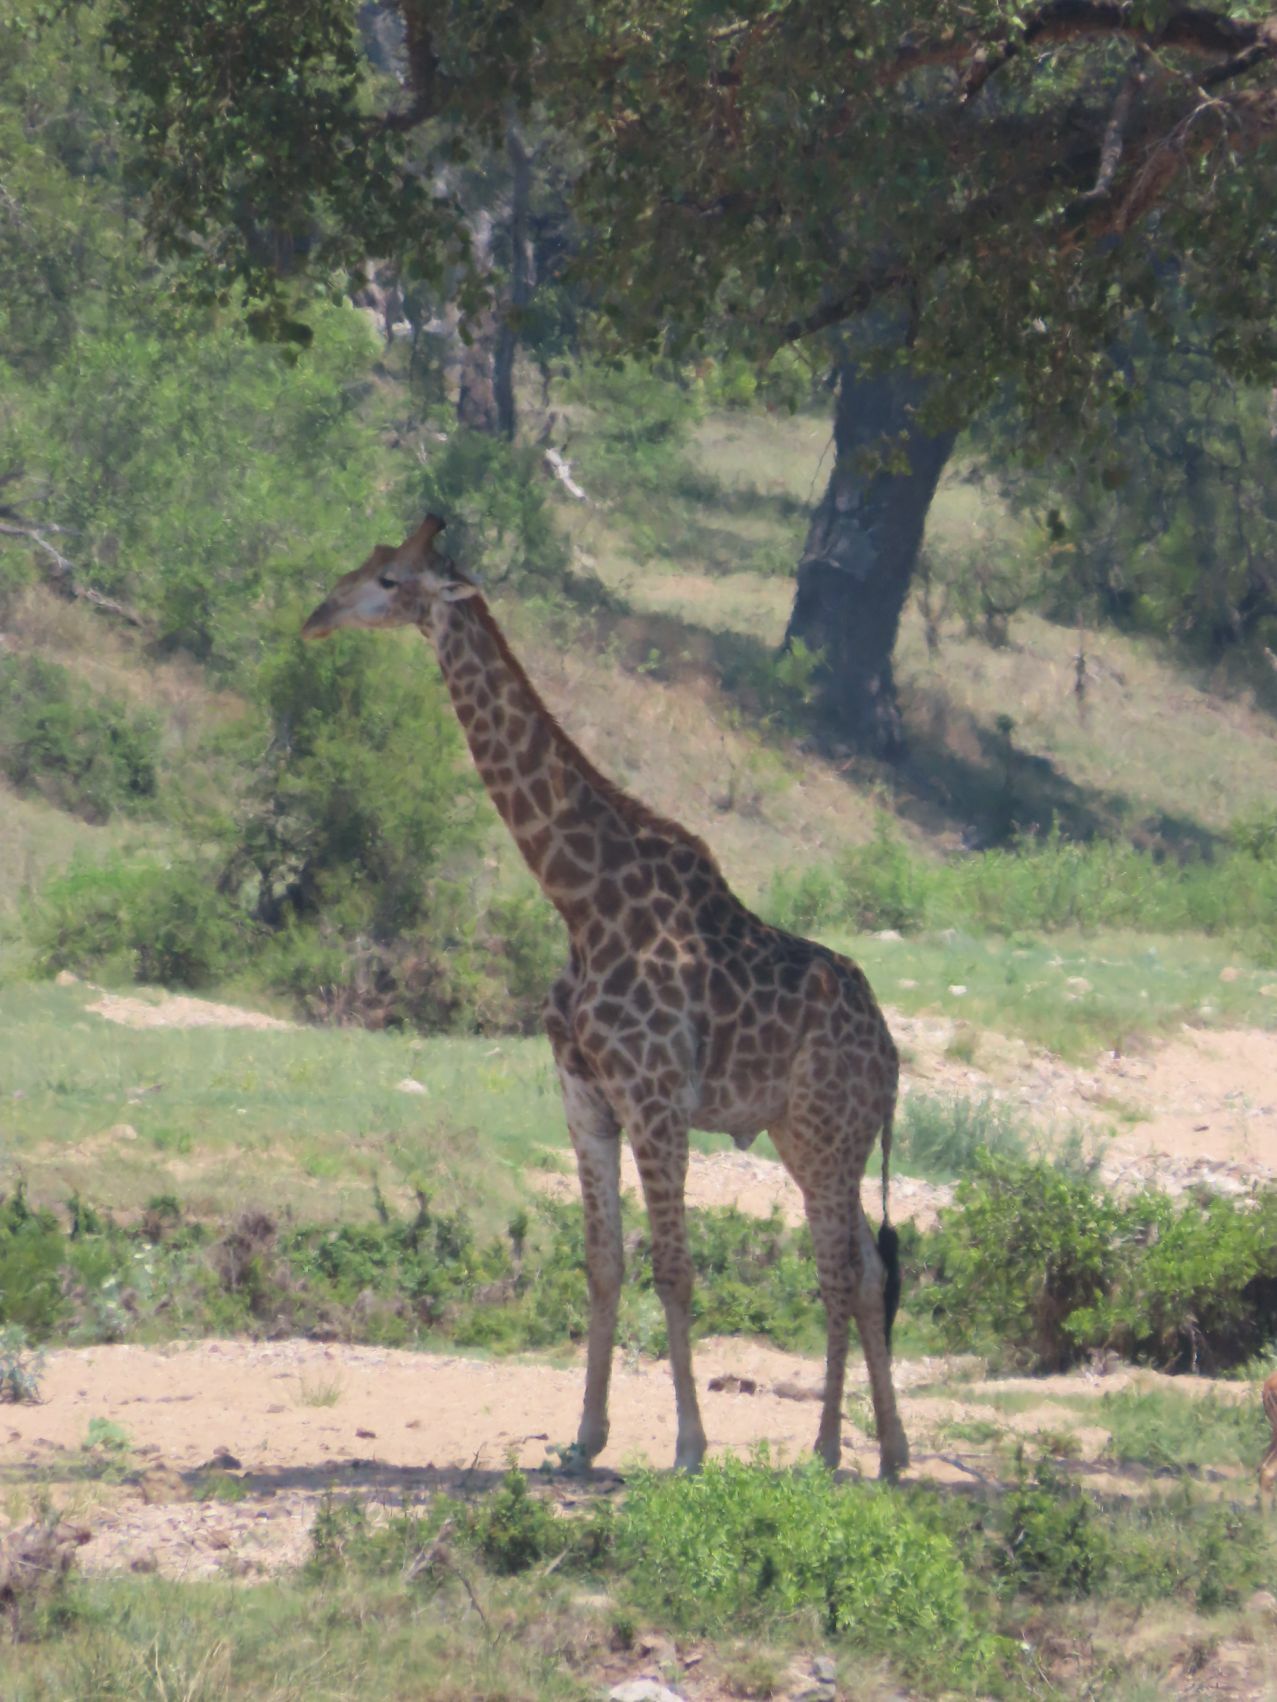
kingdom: Animalia
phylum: Chordata
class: Mammalia
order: Artiodactyla
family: Giraffidae
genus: Giraffa
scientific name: Giraffa giraffa
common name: Southern giraffe
